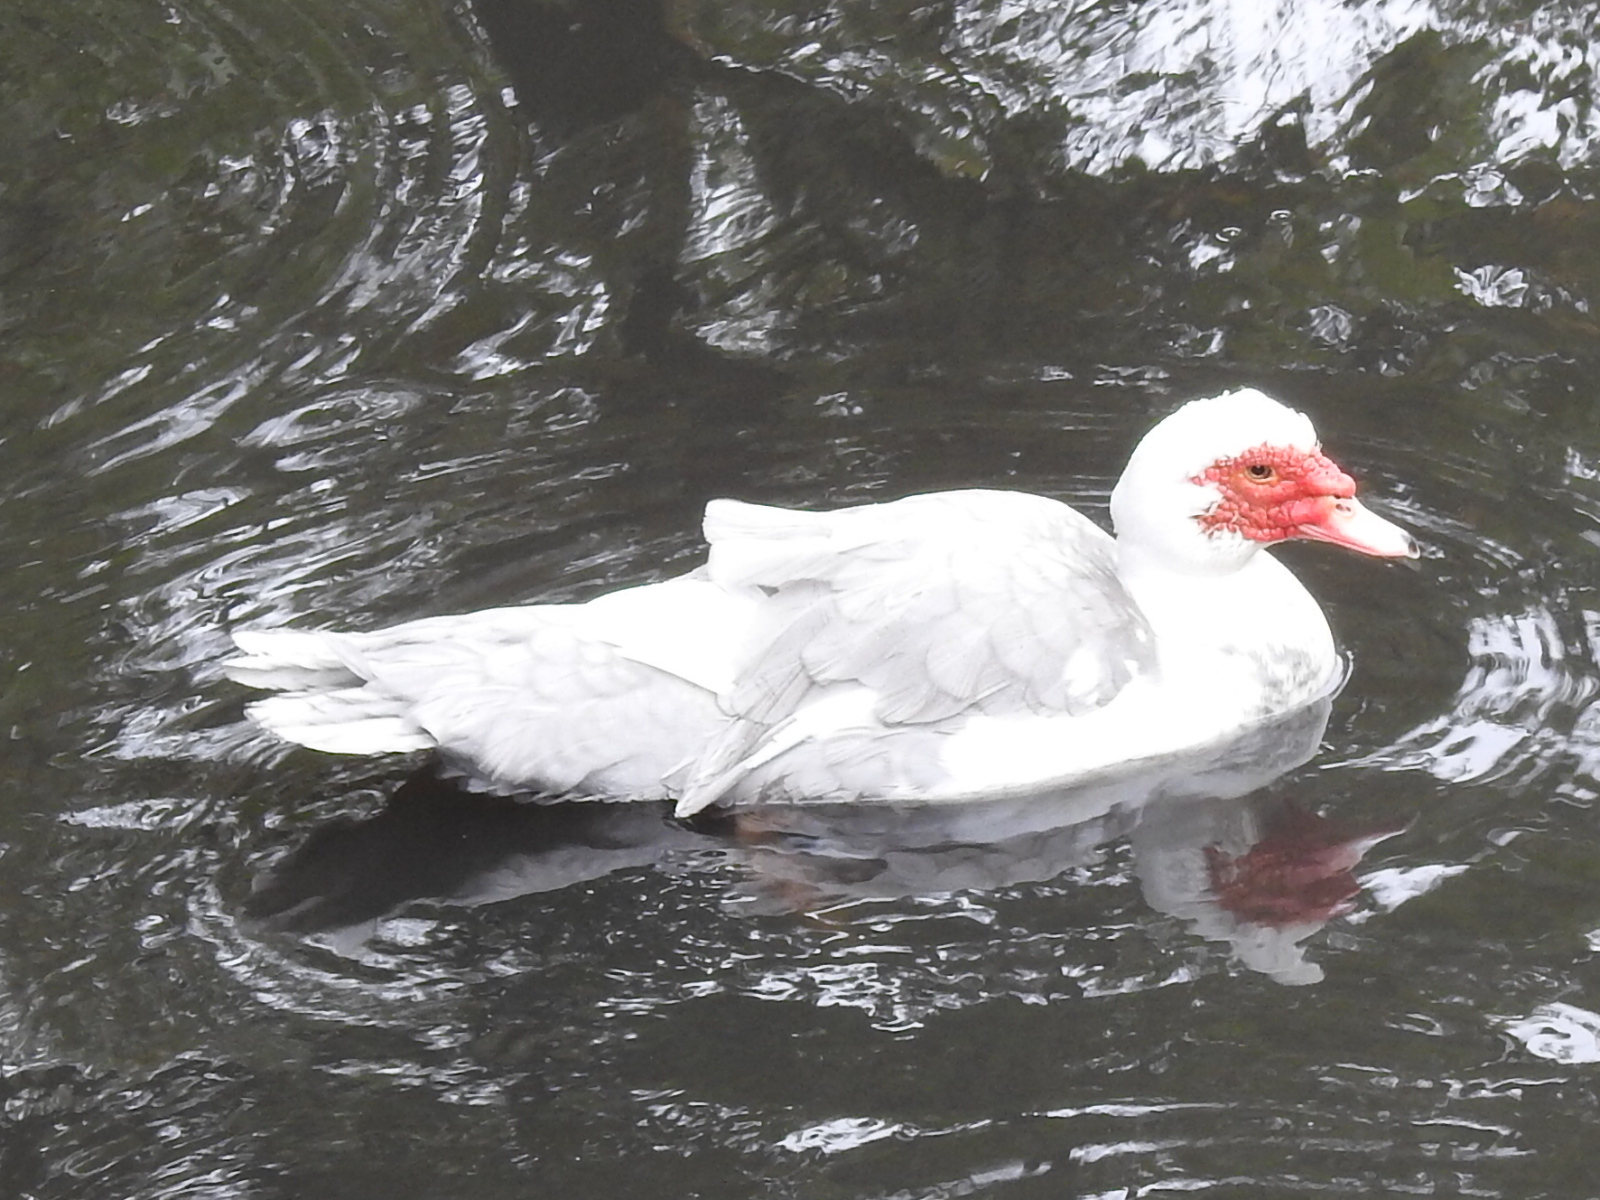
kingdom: Animalia
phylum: Chordata
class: Aves
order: Anseriformes
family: Anatidae
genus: Cairina
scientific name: Cairina moschata
